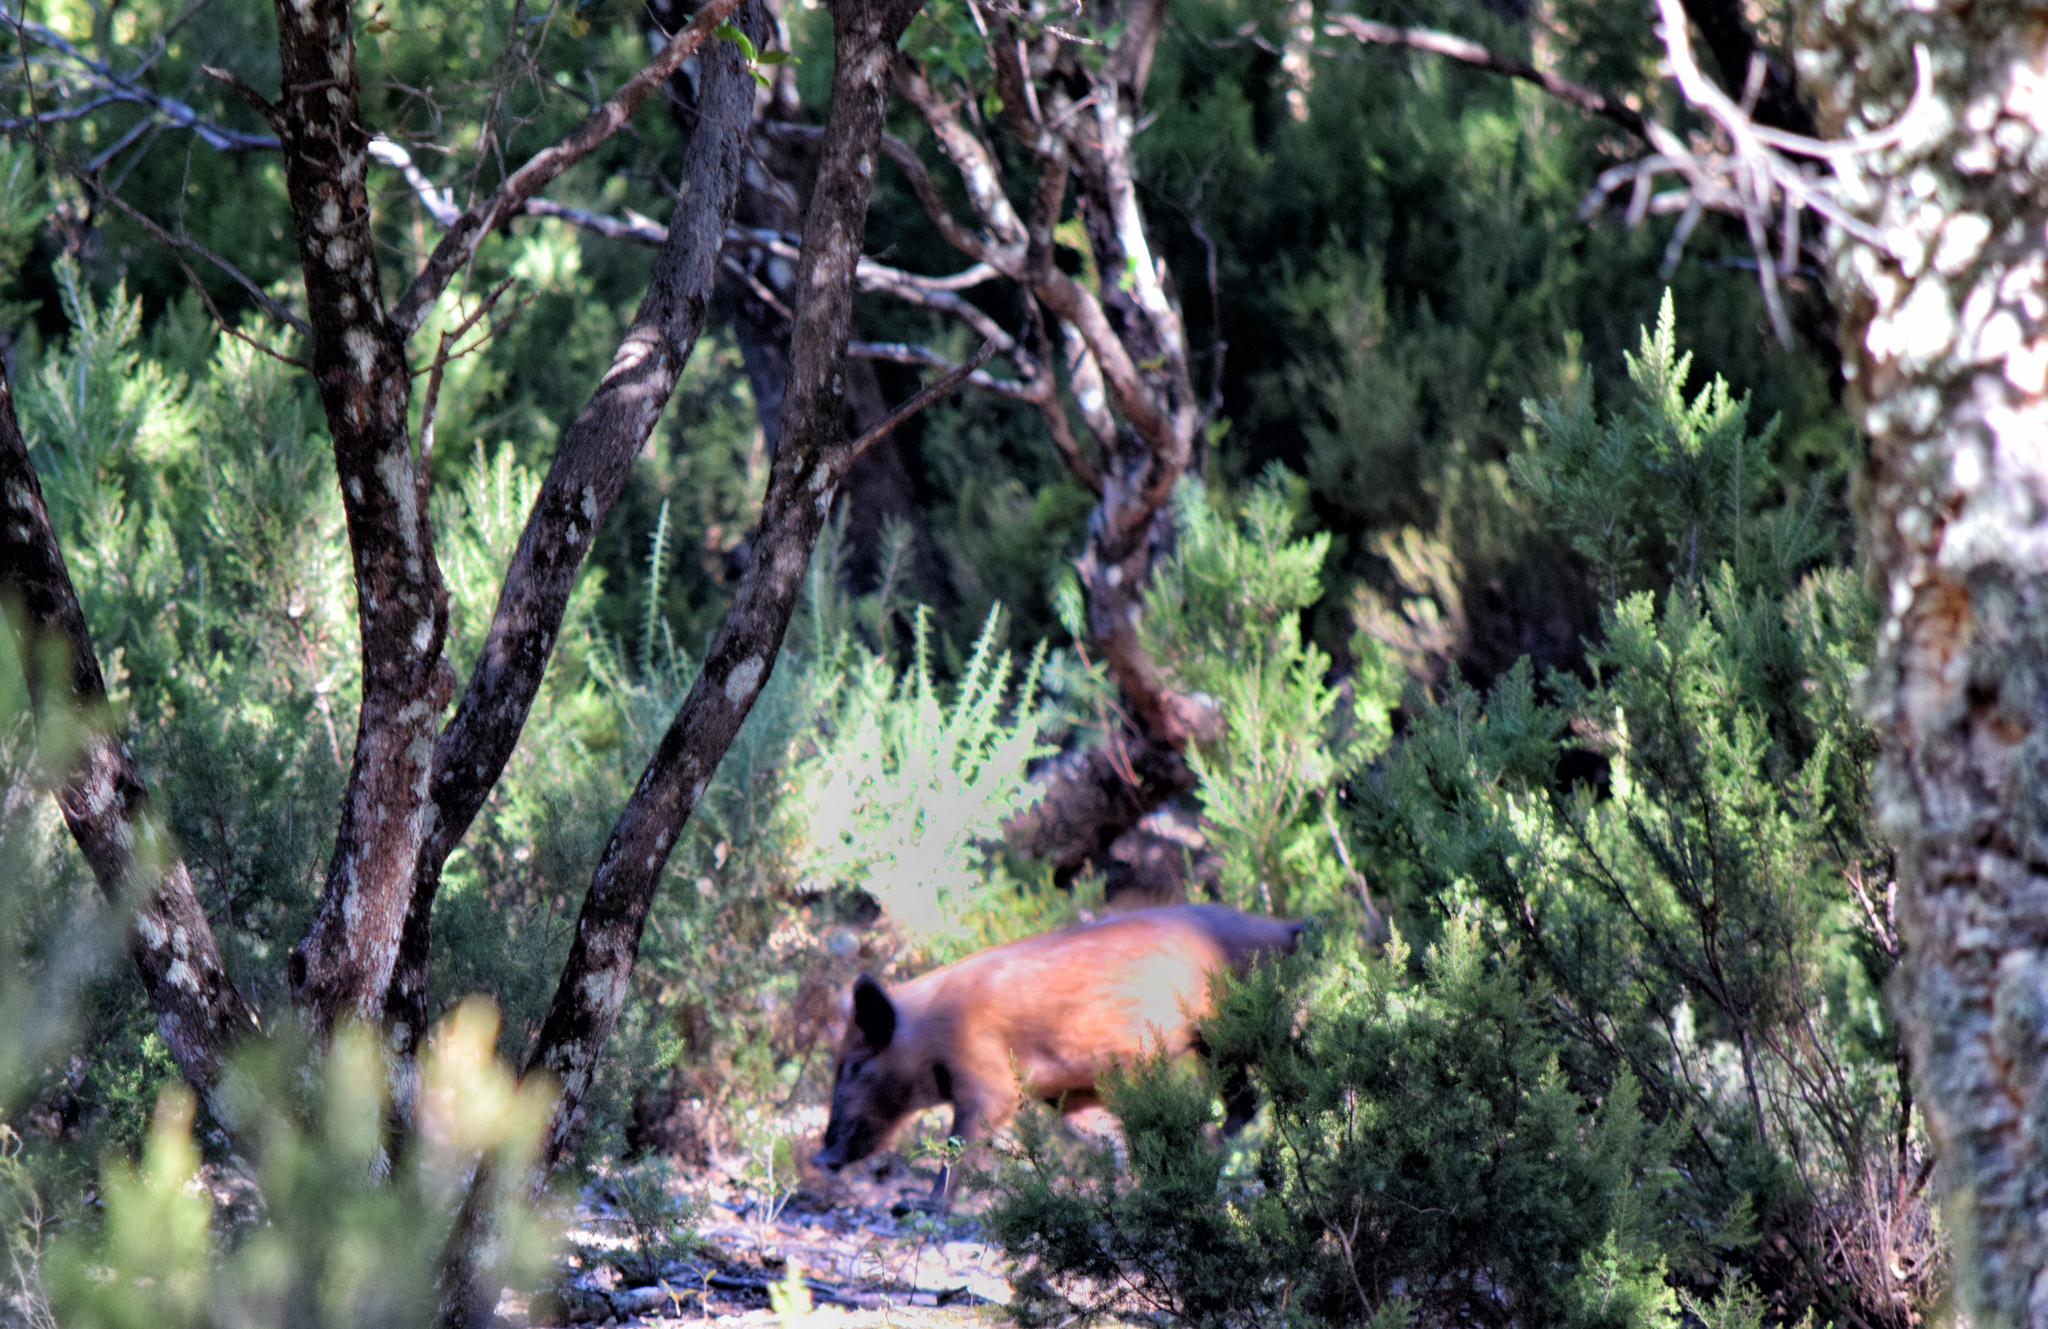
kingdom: Animalia
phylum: Chordata
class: Mammalia
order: Artiodactyla
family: Suidae
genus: Sus
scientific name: Sus scrofa
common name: Wild boar
